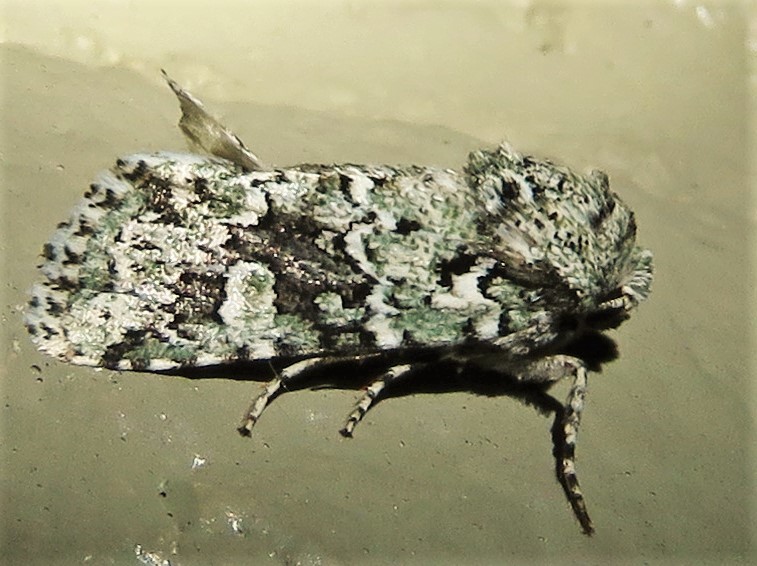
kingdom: Animalia
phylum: Arthropoda
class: Insecta
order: Lepidoptera
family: Noctuidae
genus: Lacinipolia
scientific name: Lacinipolia laudabilis
